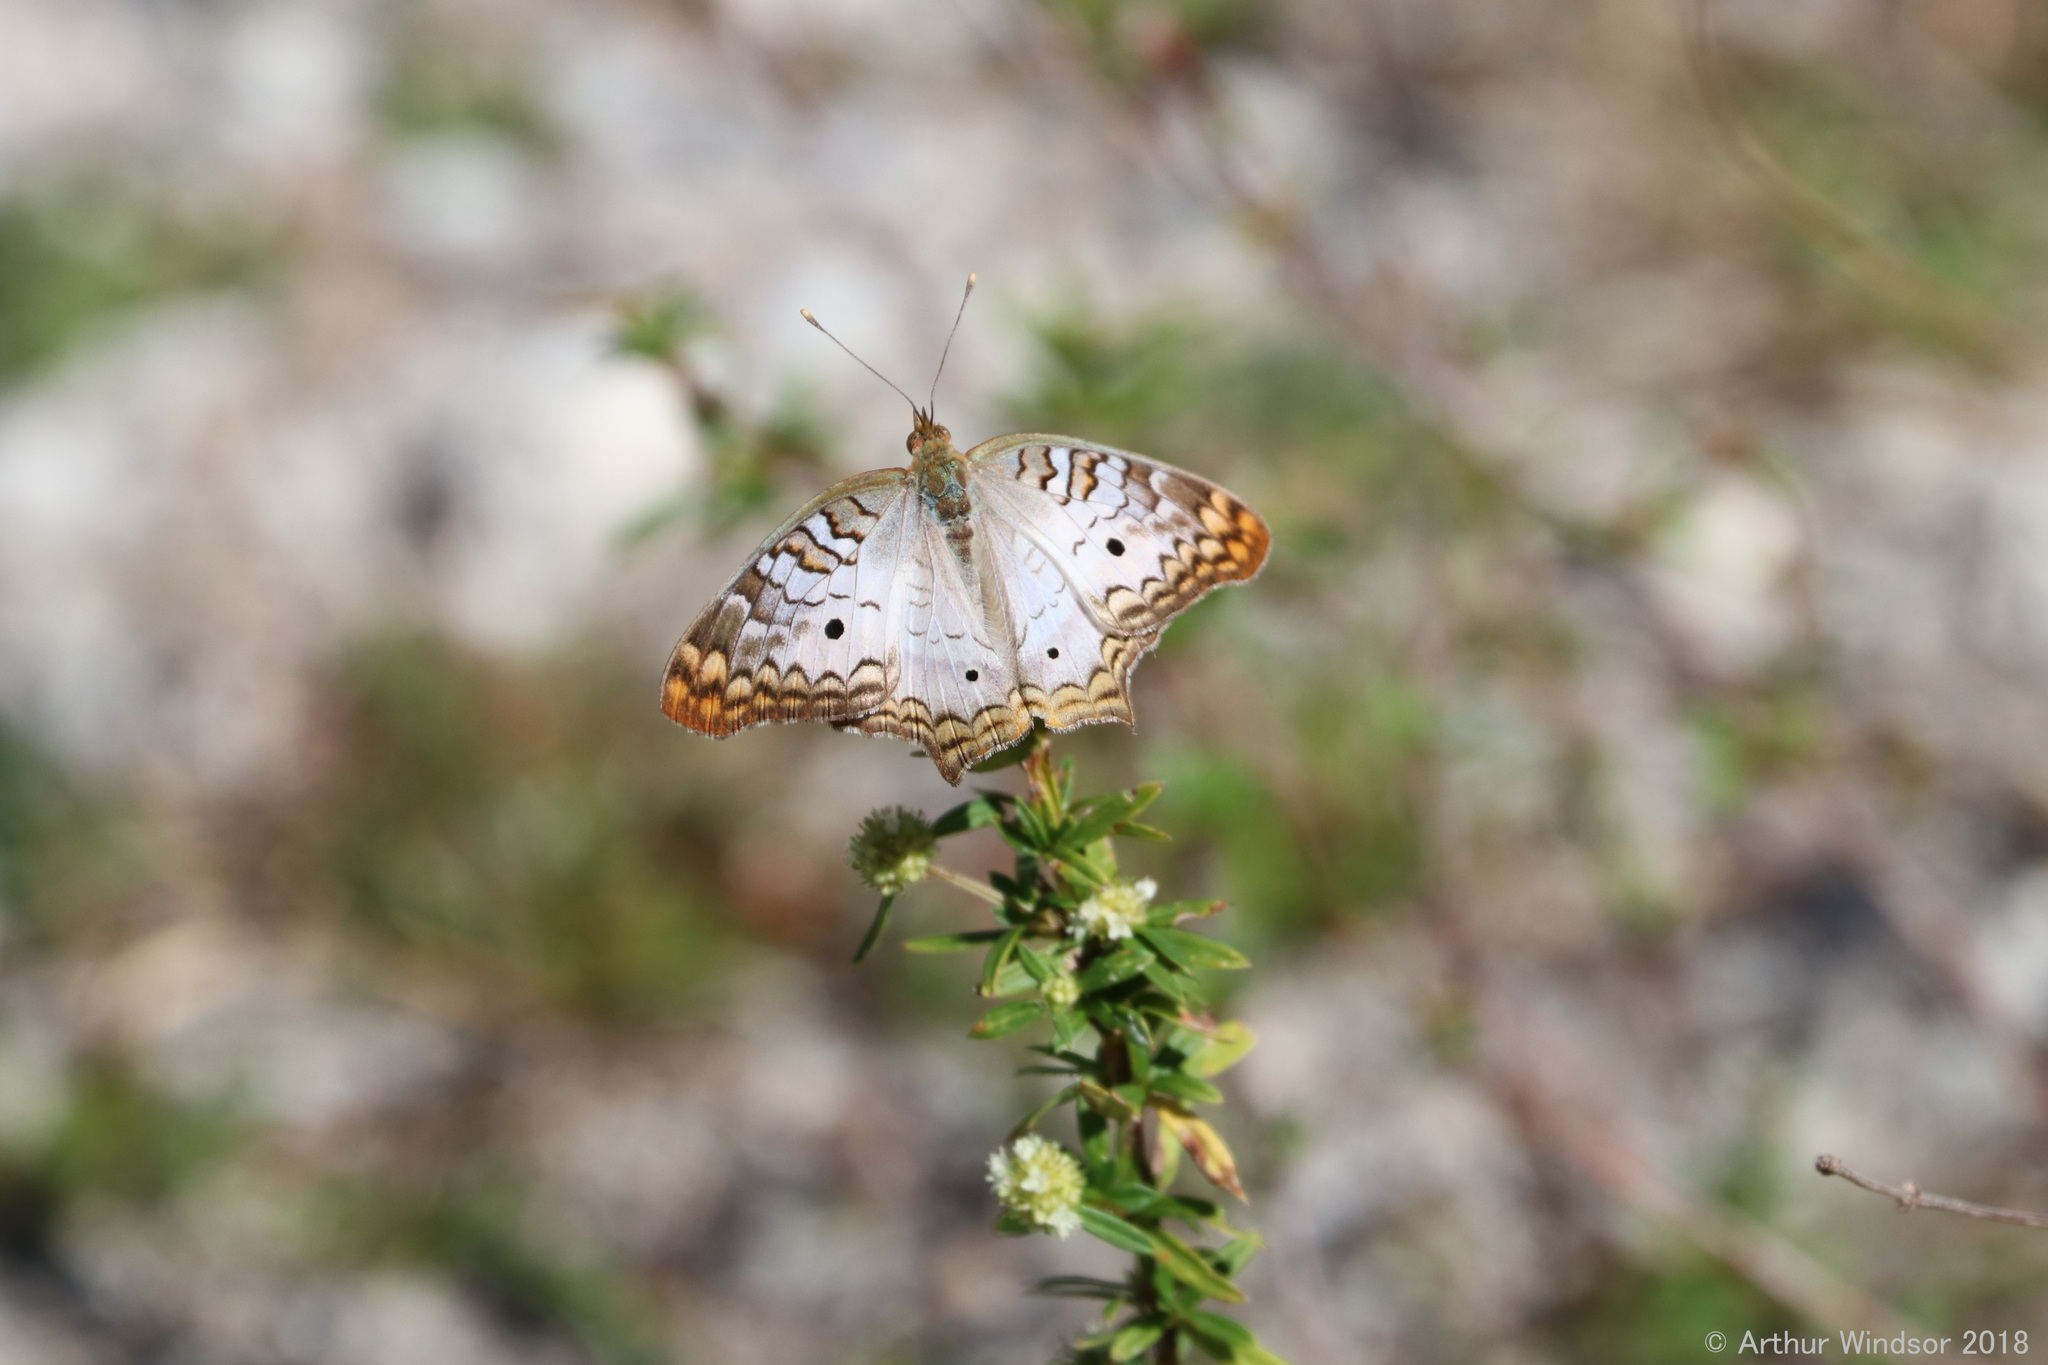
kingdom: Animalia
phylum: Arthropoda
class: Insecta
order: Lepidoptera
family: Nymphalidae
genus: Anartia
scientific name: Anartia jatrophae
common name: White peacock
